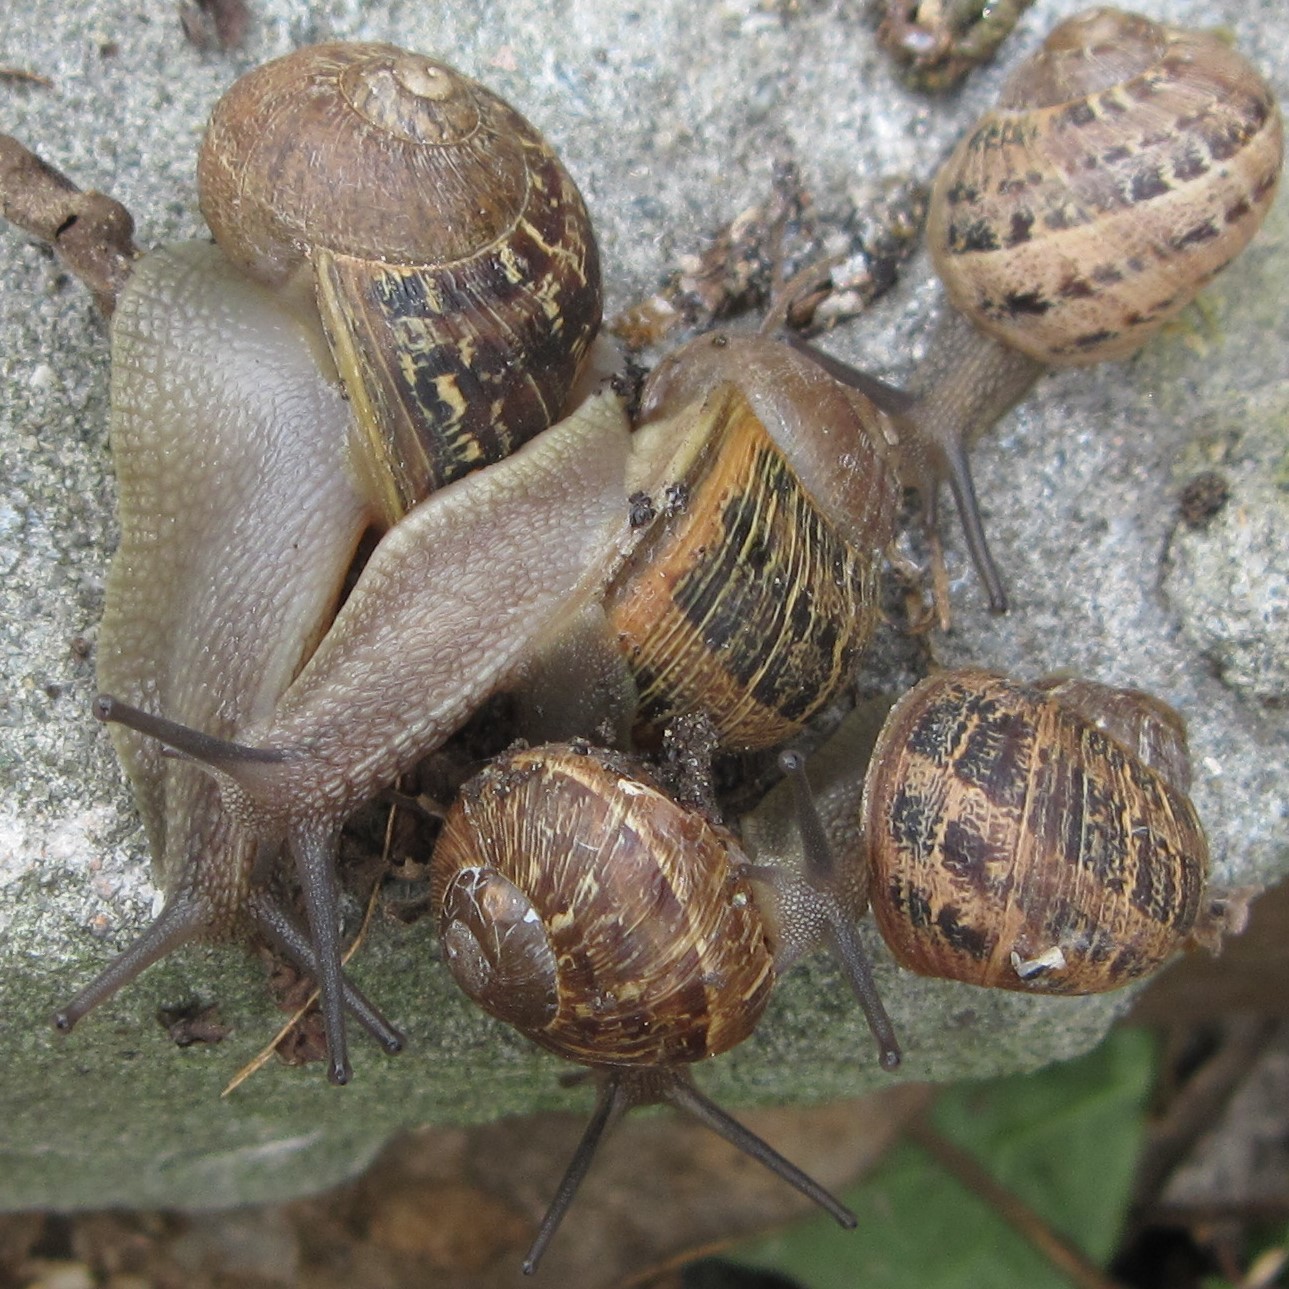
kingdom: Animalia
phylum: Mollusca
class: Gastropoda
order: Stylommatophora
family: Helicidae
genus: Cornu
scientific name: Cornu aspersum
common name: Brown garden snail
